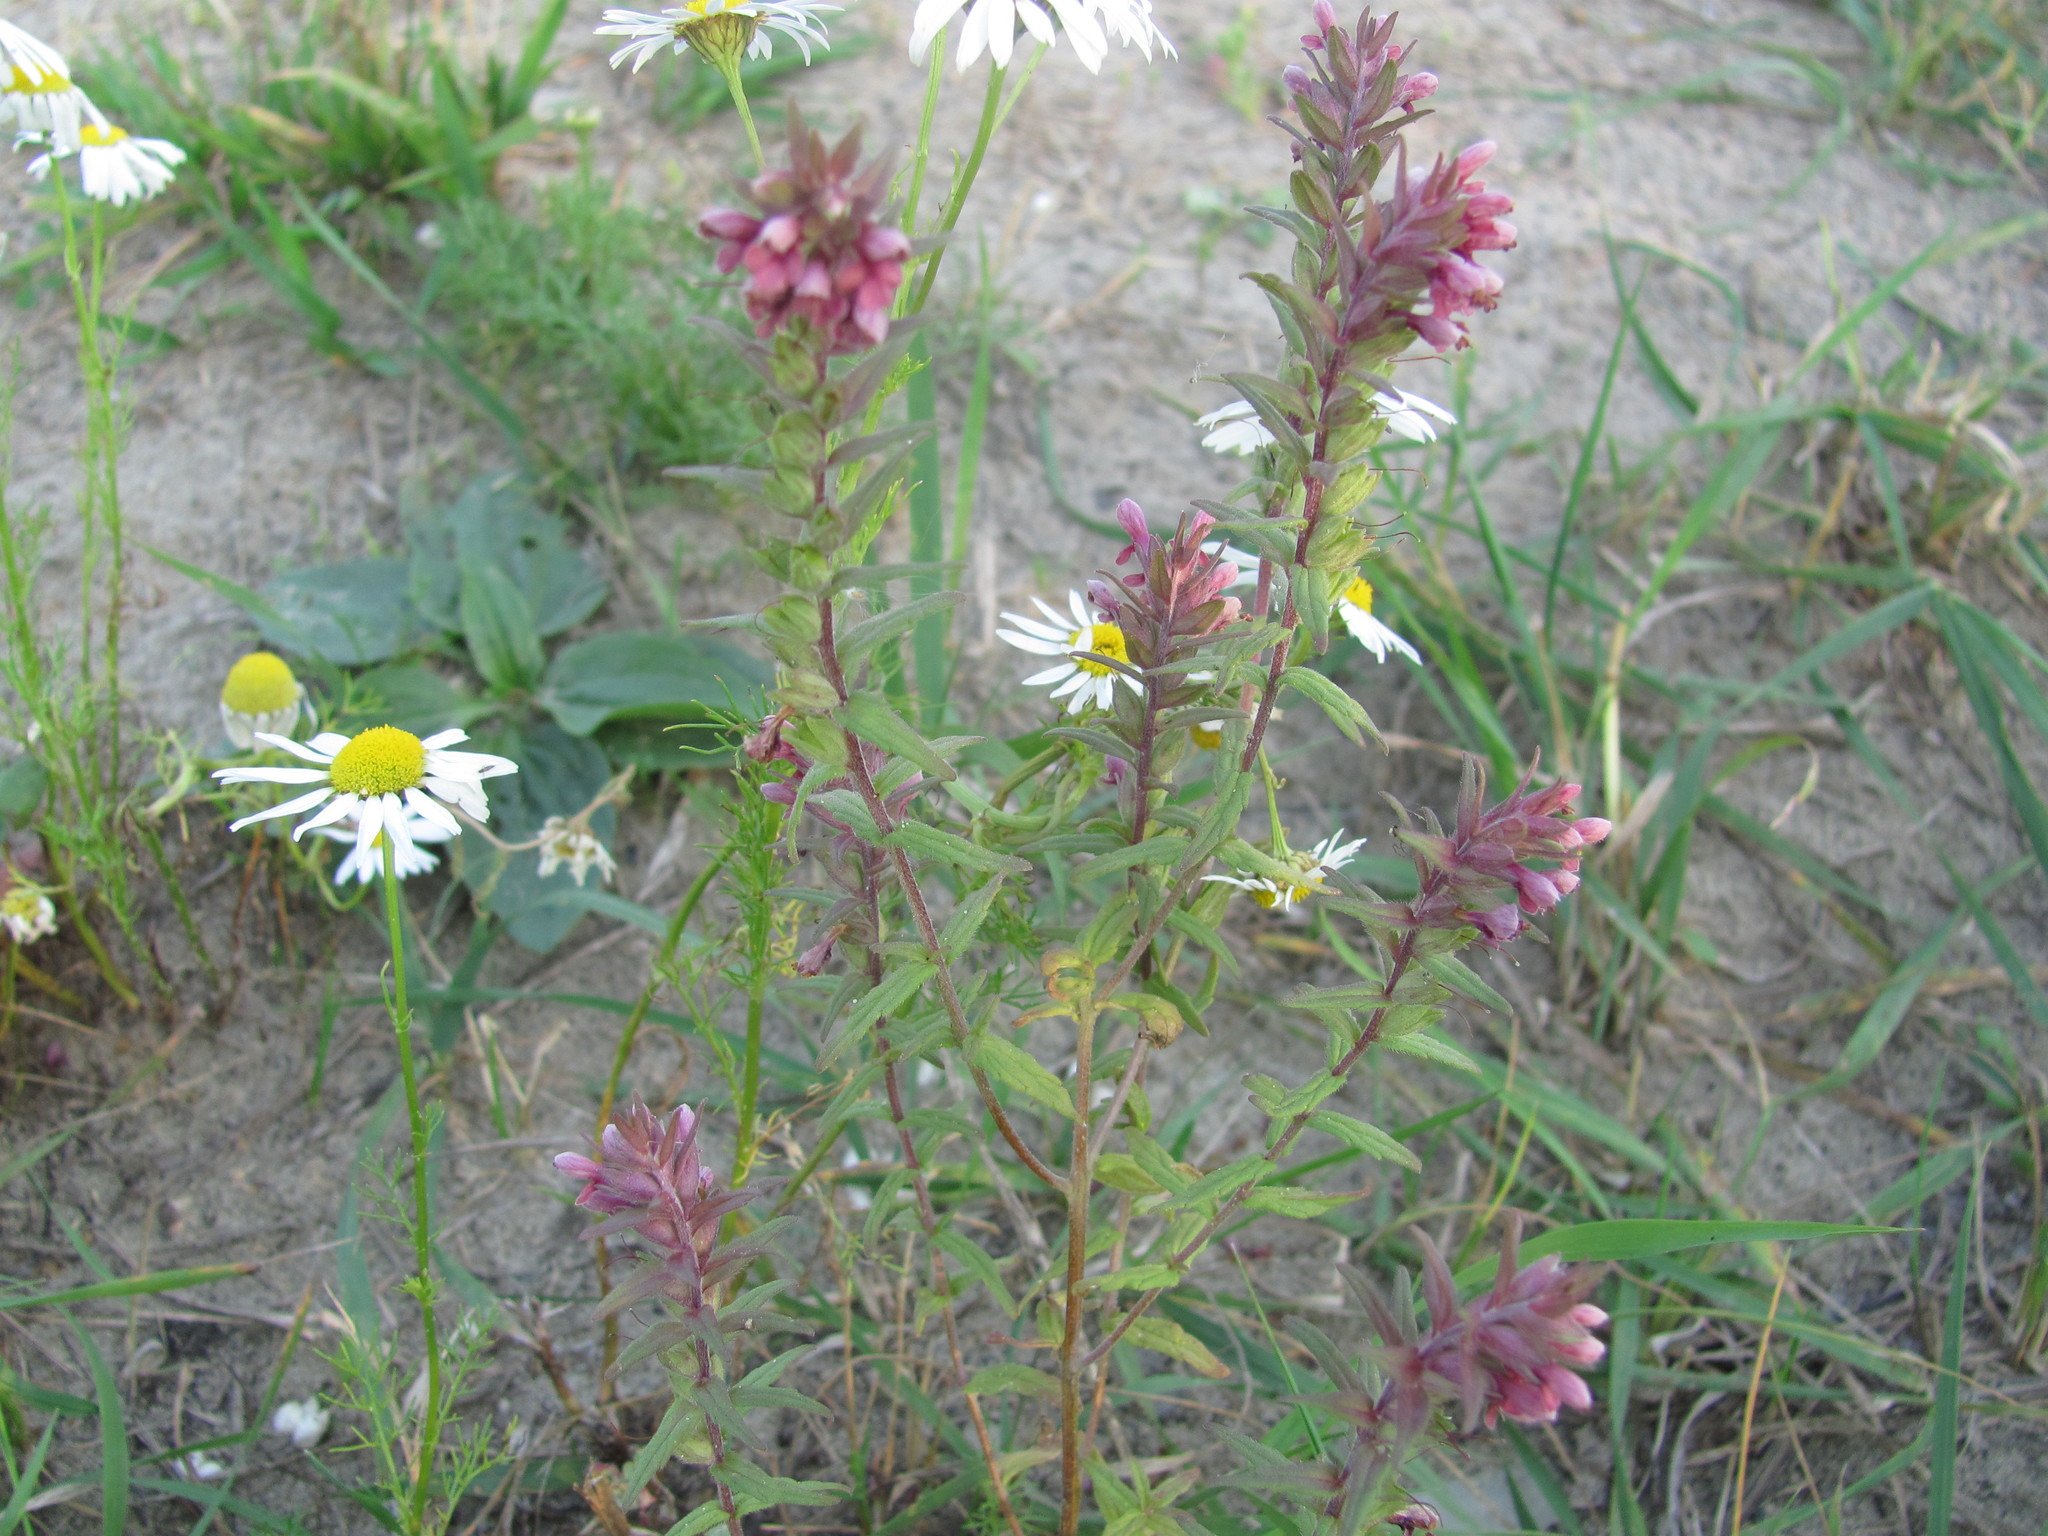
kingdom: Plantae
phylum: Tracheophyta
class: Magnoliopsida
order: Lamiales
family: Orobanchaceae
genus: Odontites
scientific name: Odontites vulgaris
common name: Broomrape
